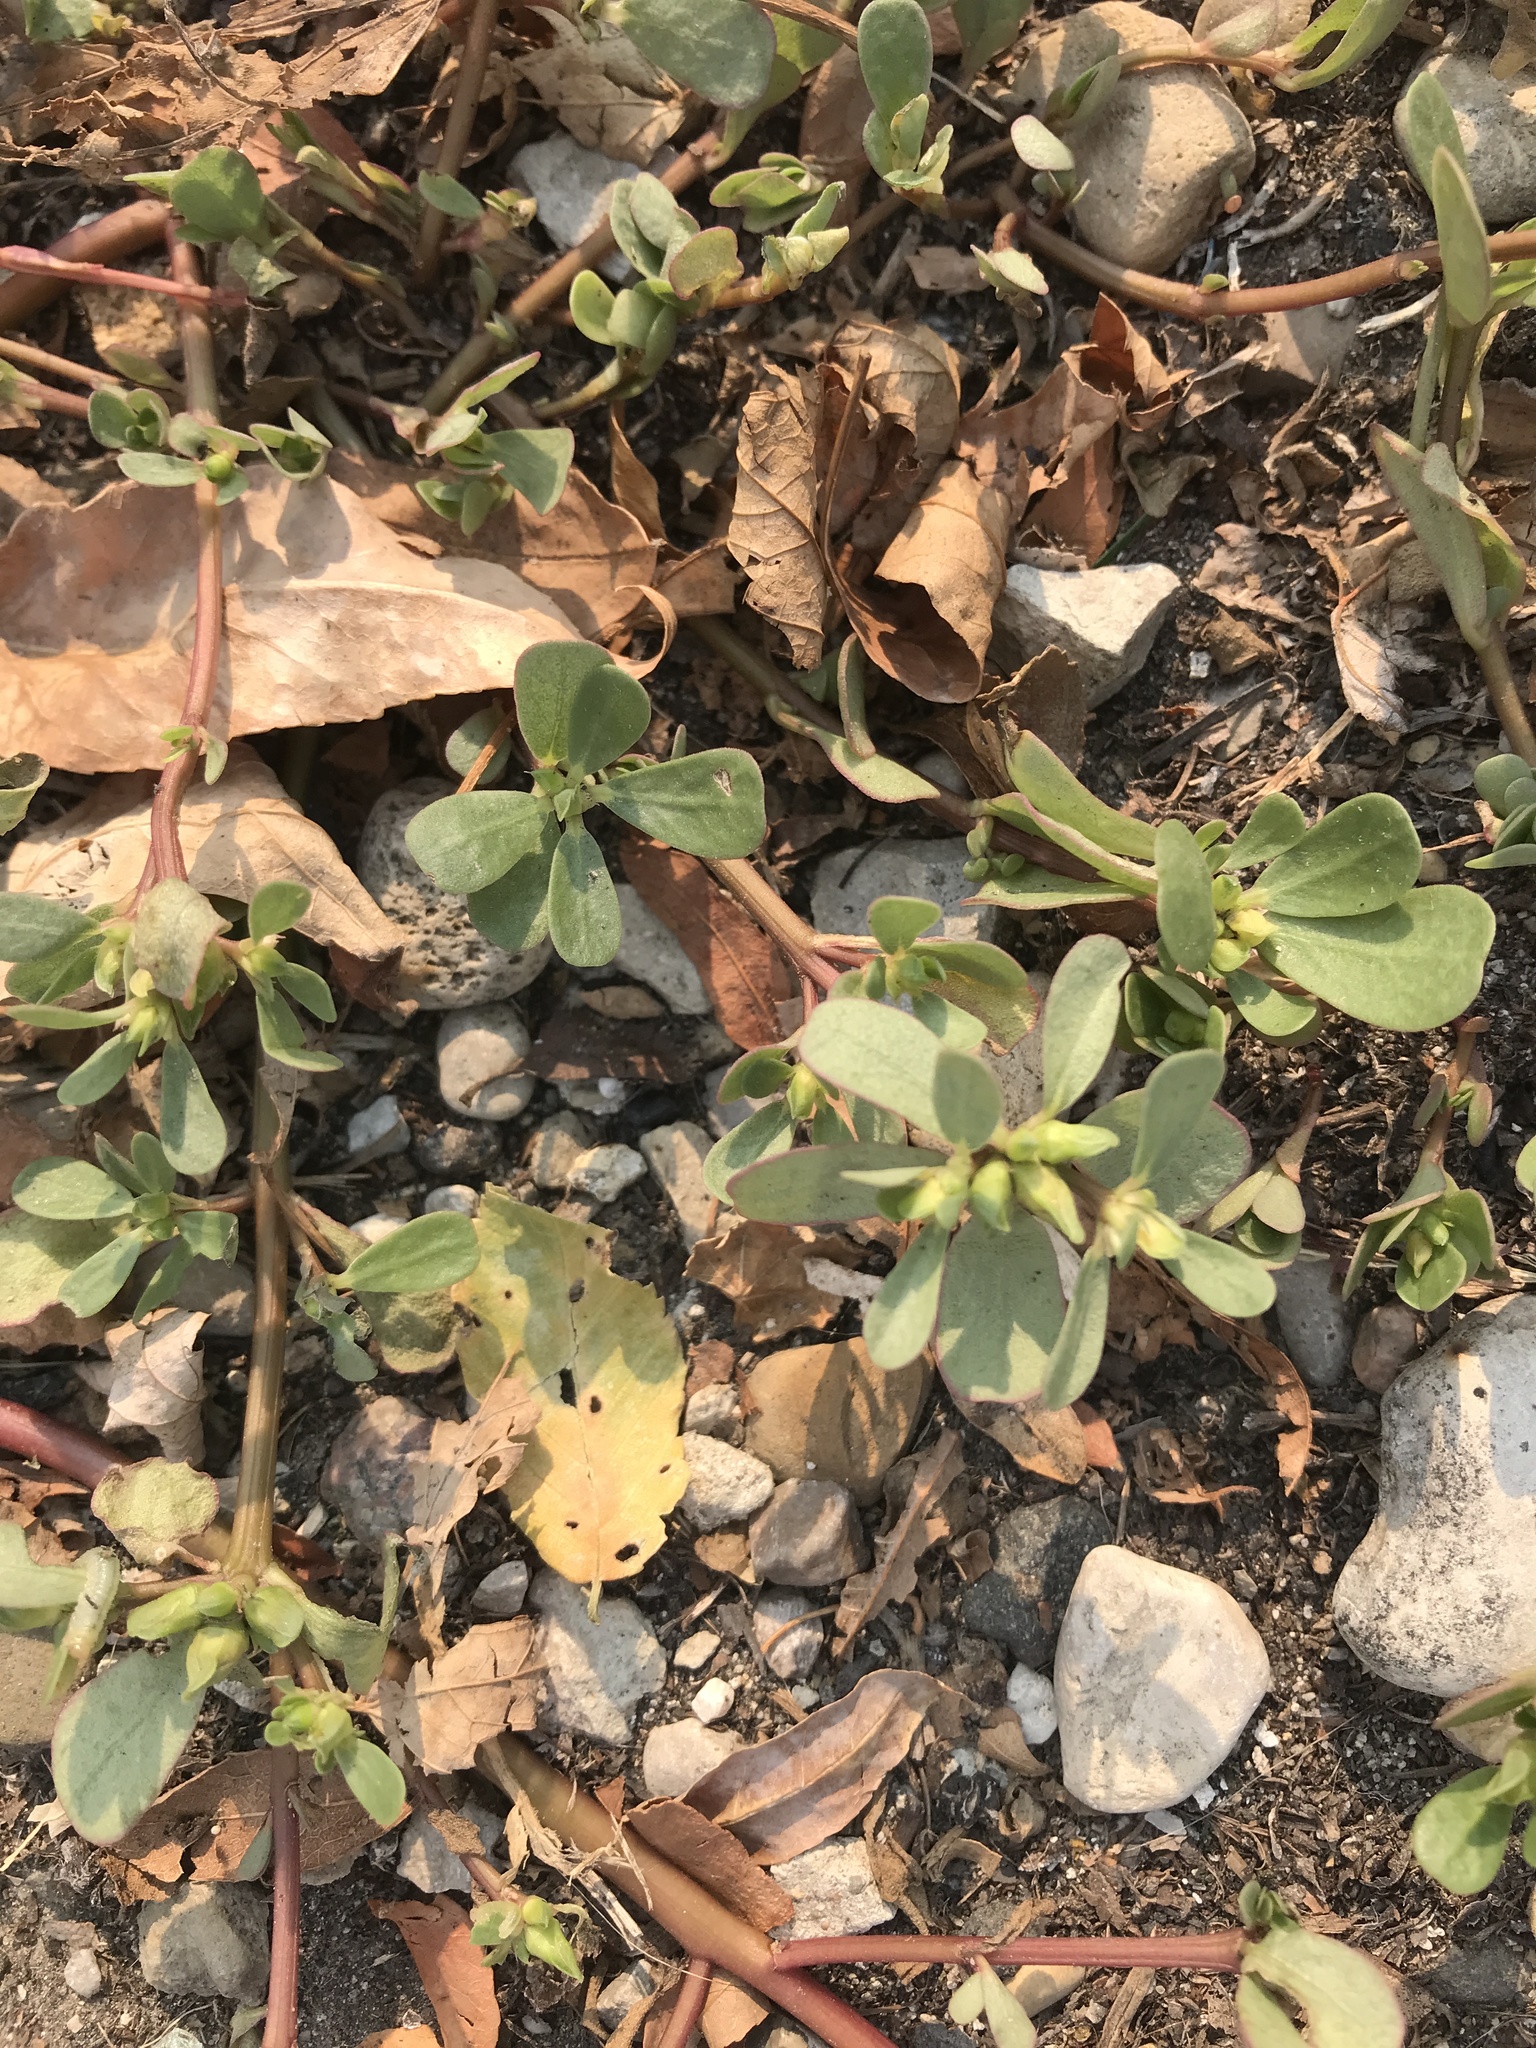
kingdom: Plantae
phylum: Tracheophyta
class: Magnoliopsida
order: Caryophyllales
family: Portulacaceae
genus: Portulaca
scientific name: Portulaca oleracea
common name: Common purslane
